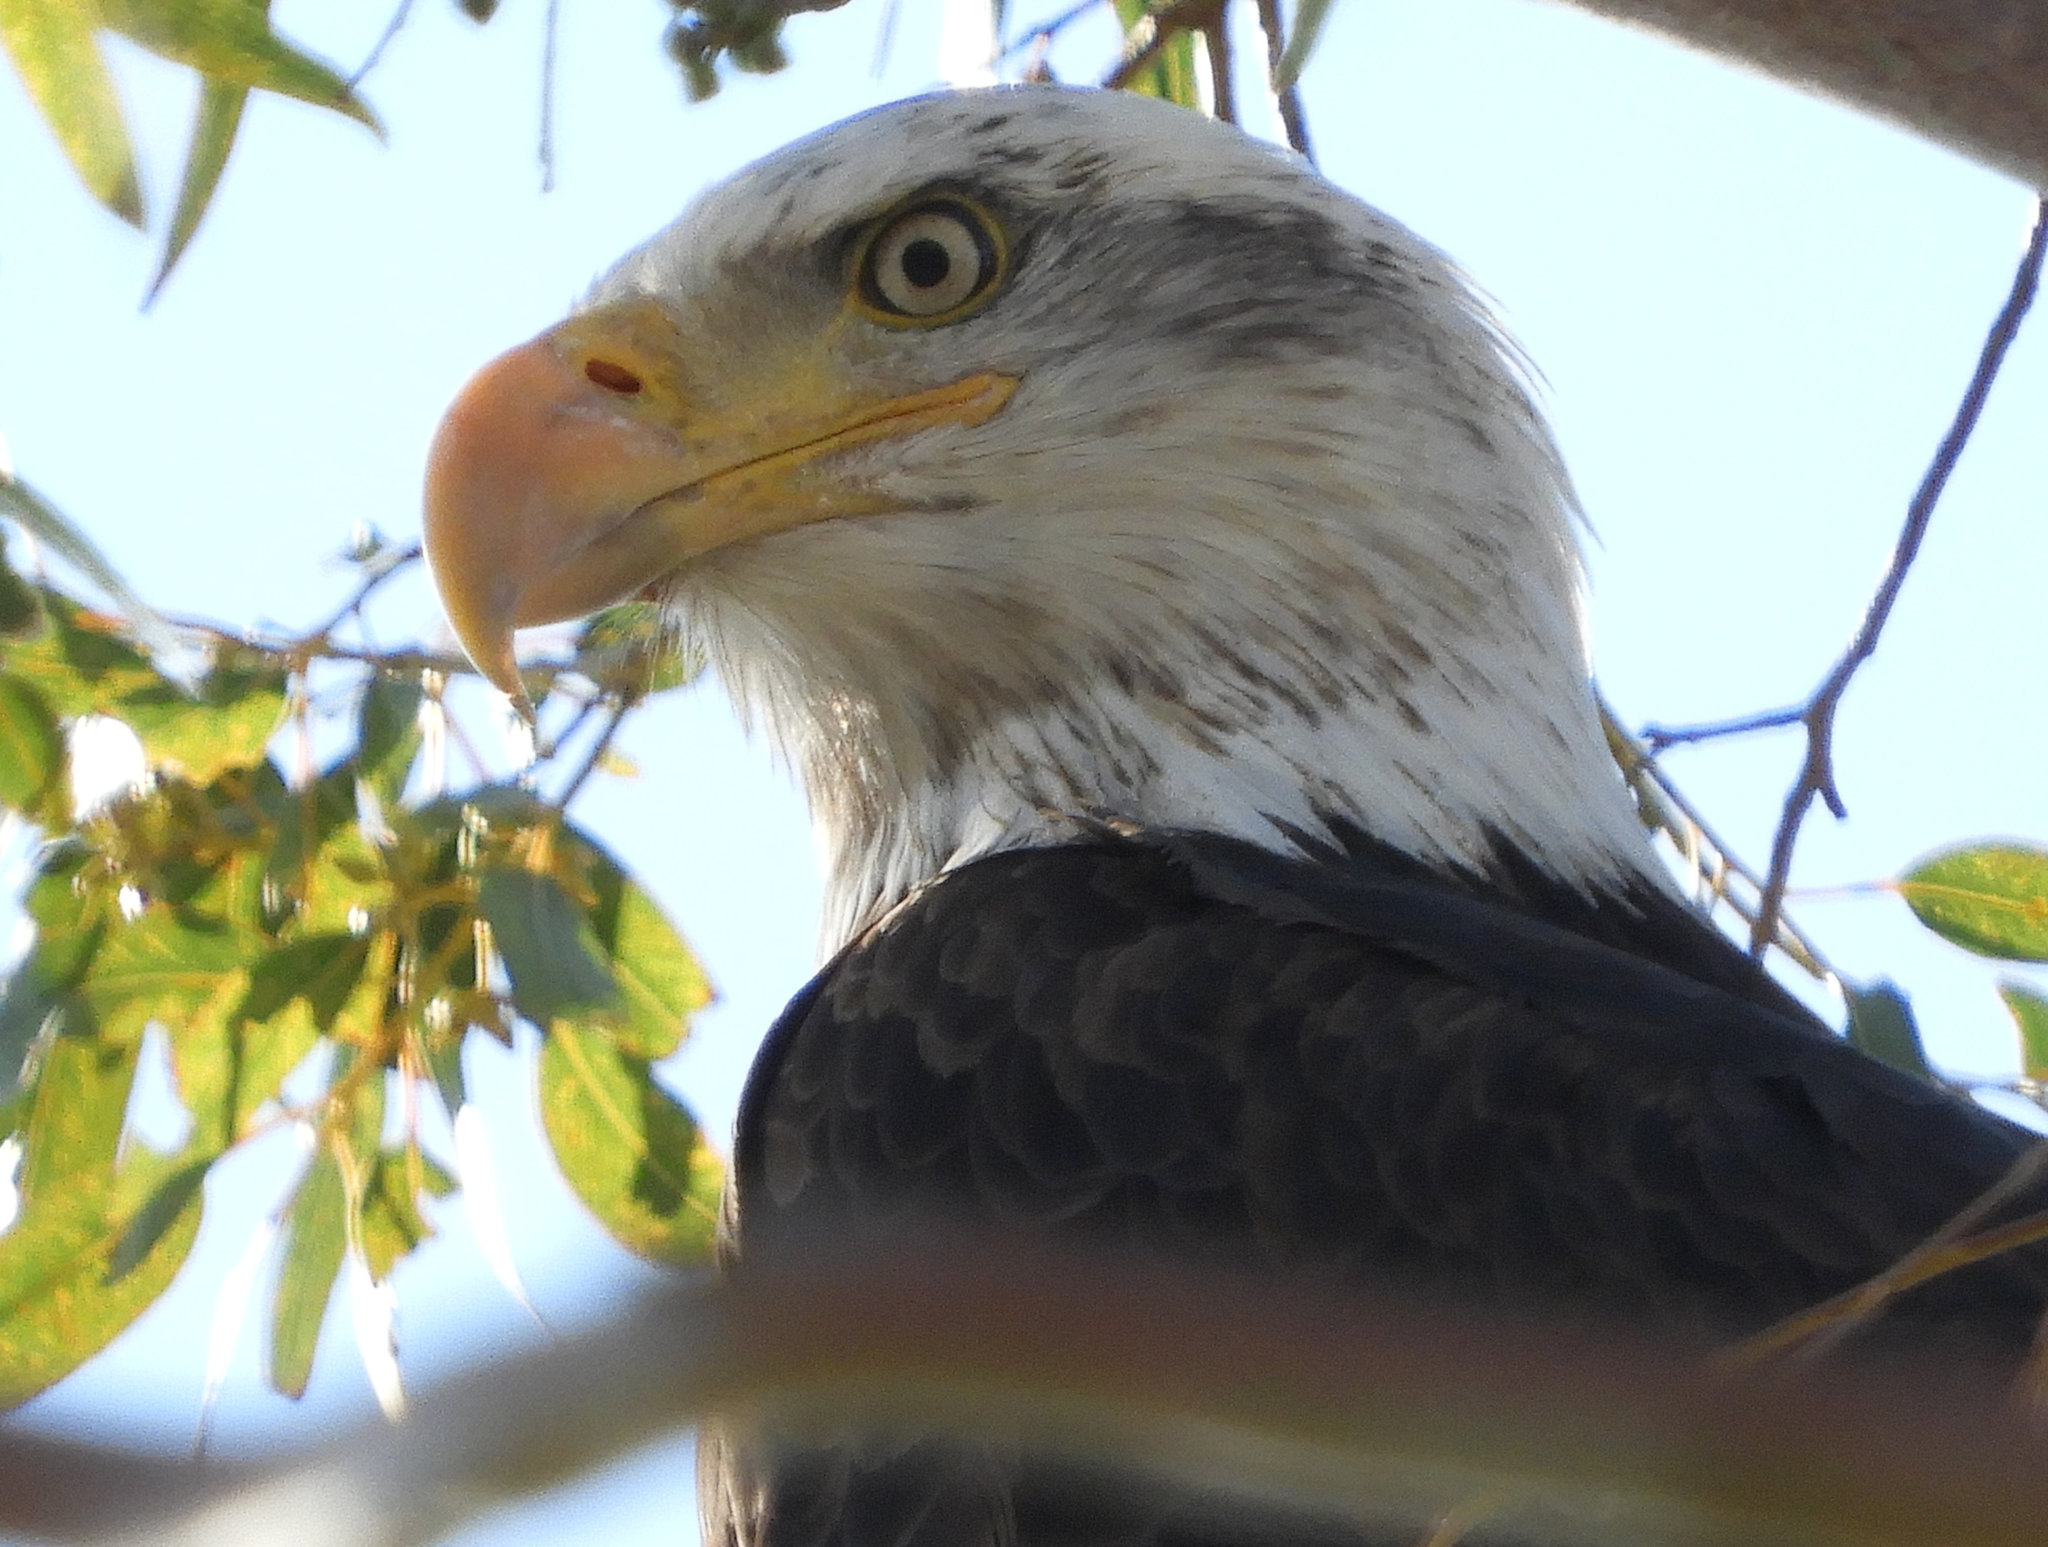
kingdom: Animalia
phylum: Chordata
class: Aves
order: Accipitriformes
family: Accipitridae
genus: Haliaeetus
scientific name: Haliaeetus leucocephalus
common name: Bald eagle
